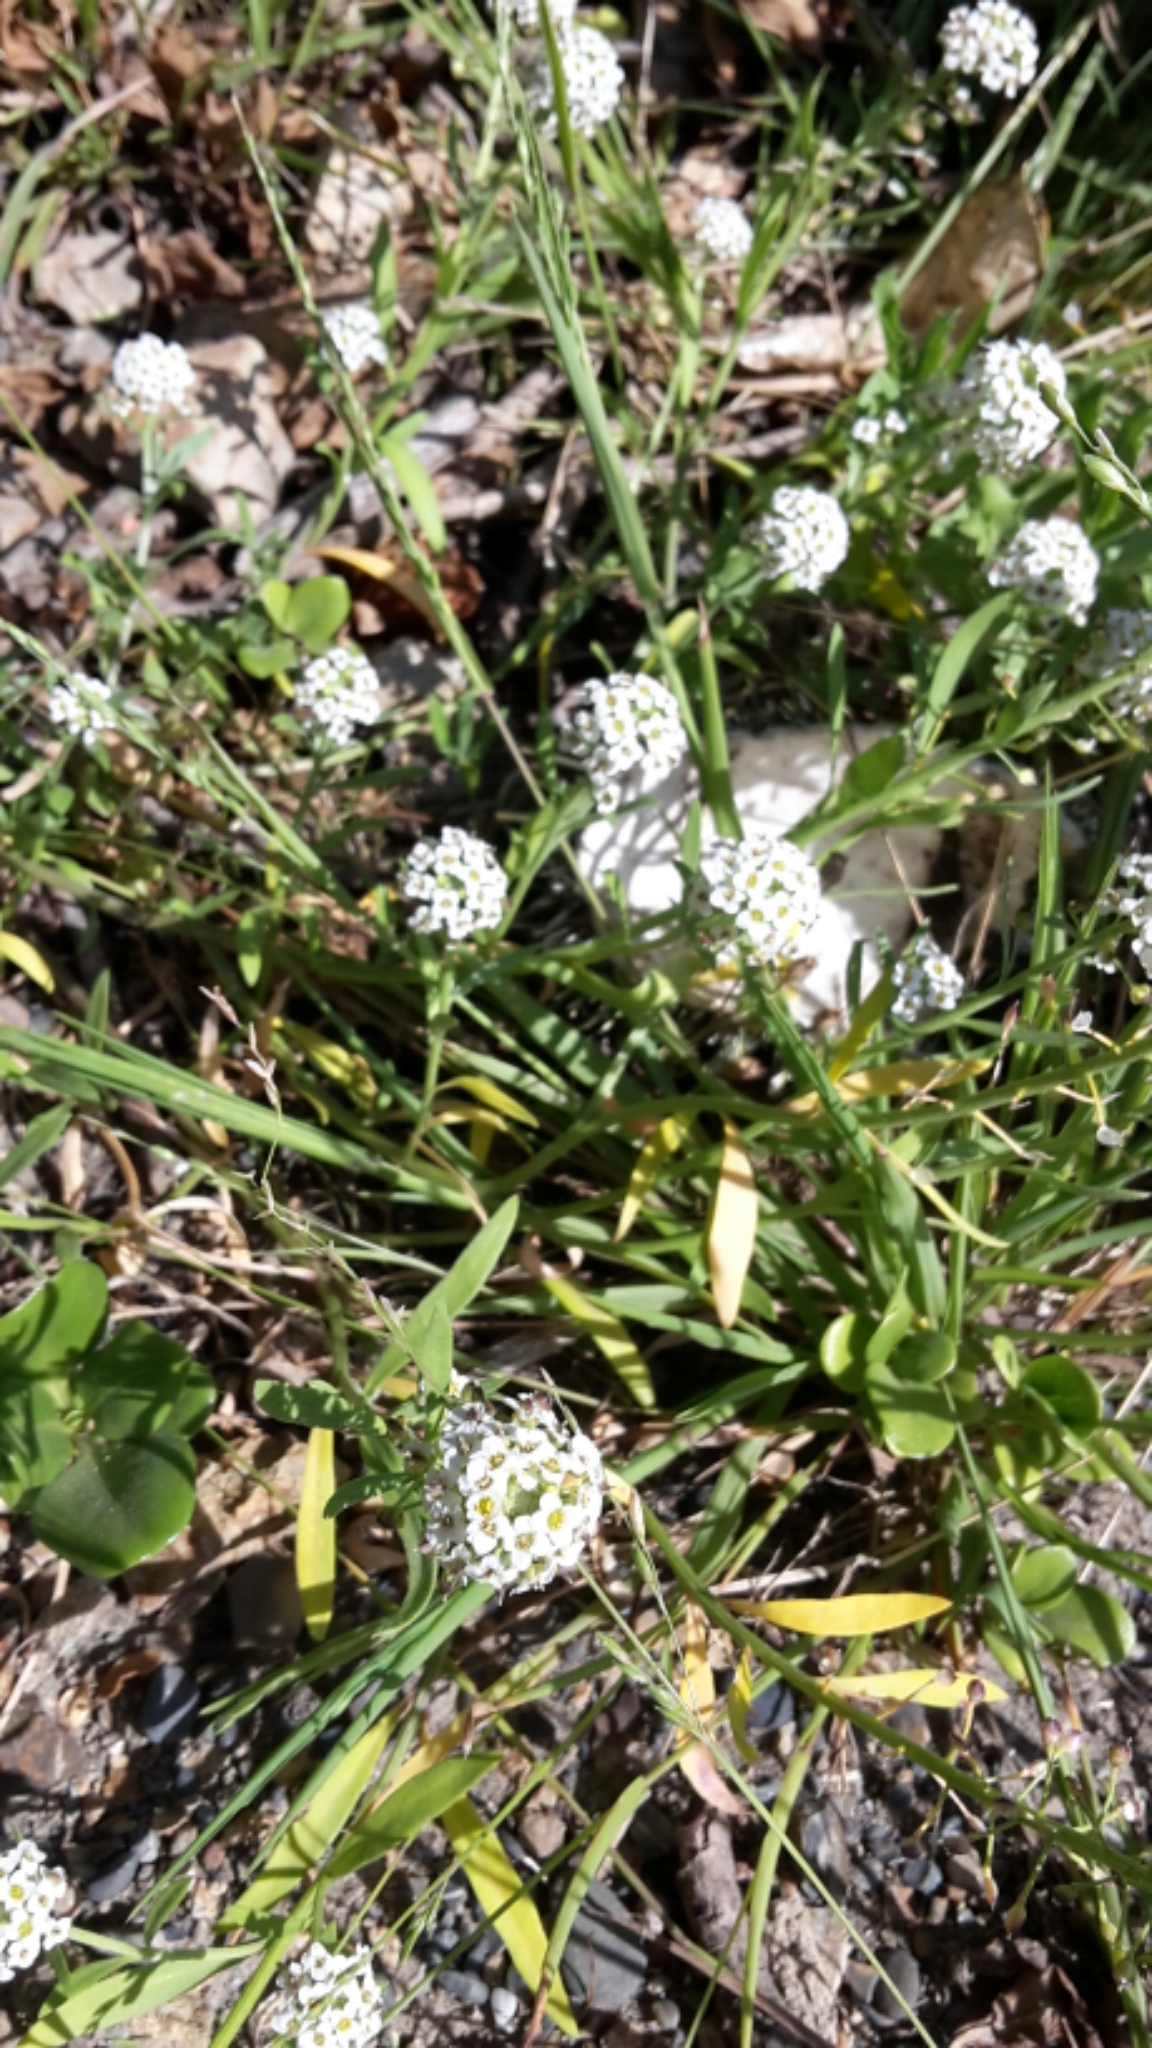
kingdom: Plantae
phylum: Tracheophyta
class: Magnoliopsida
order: Brassicales
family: Brassicaceae
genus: Lobularia
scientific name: Lobularia maritima
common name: Sweet alison
